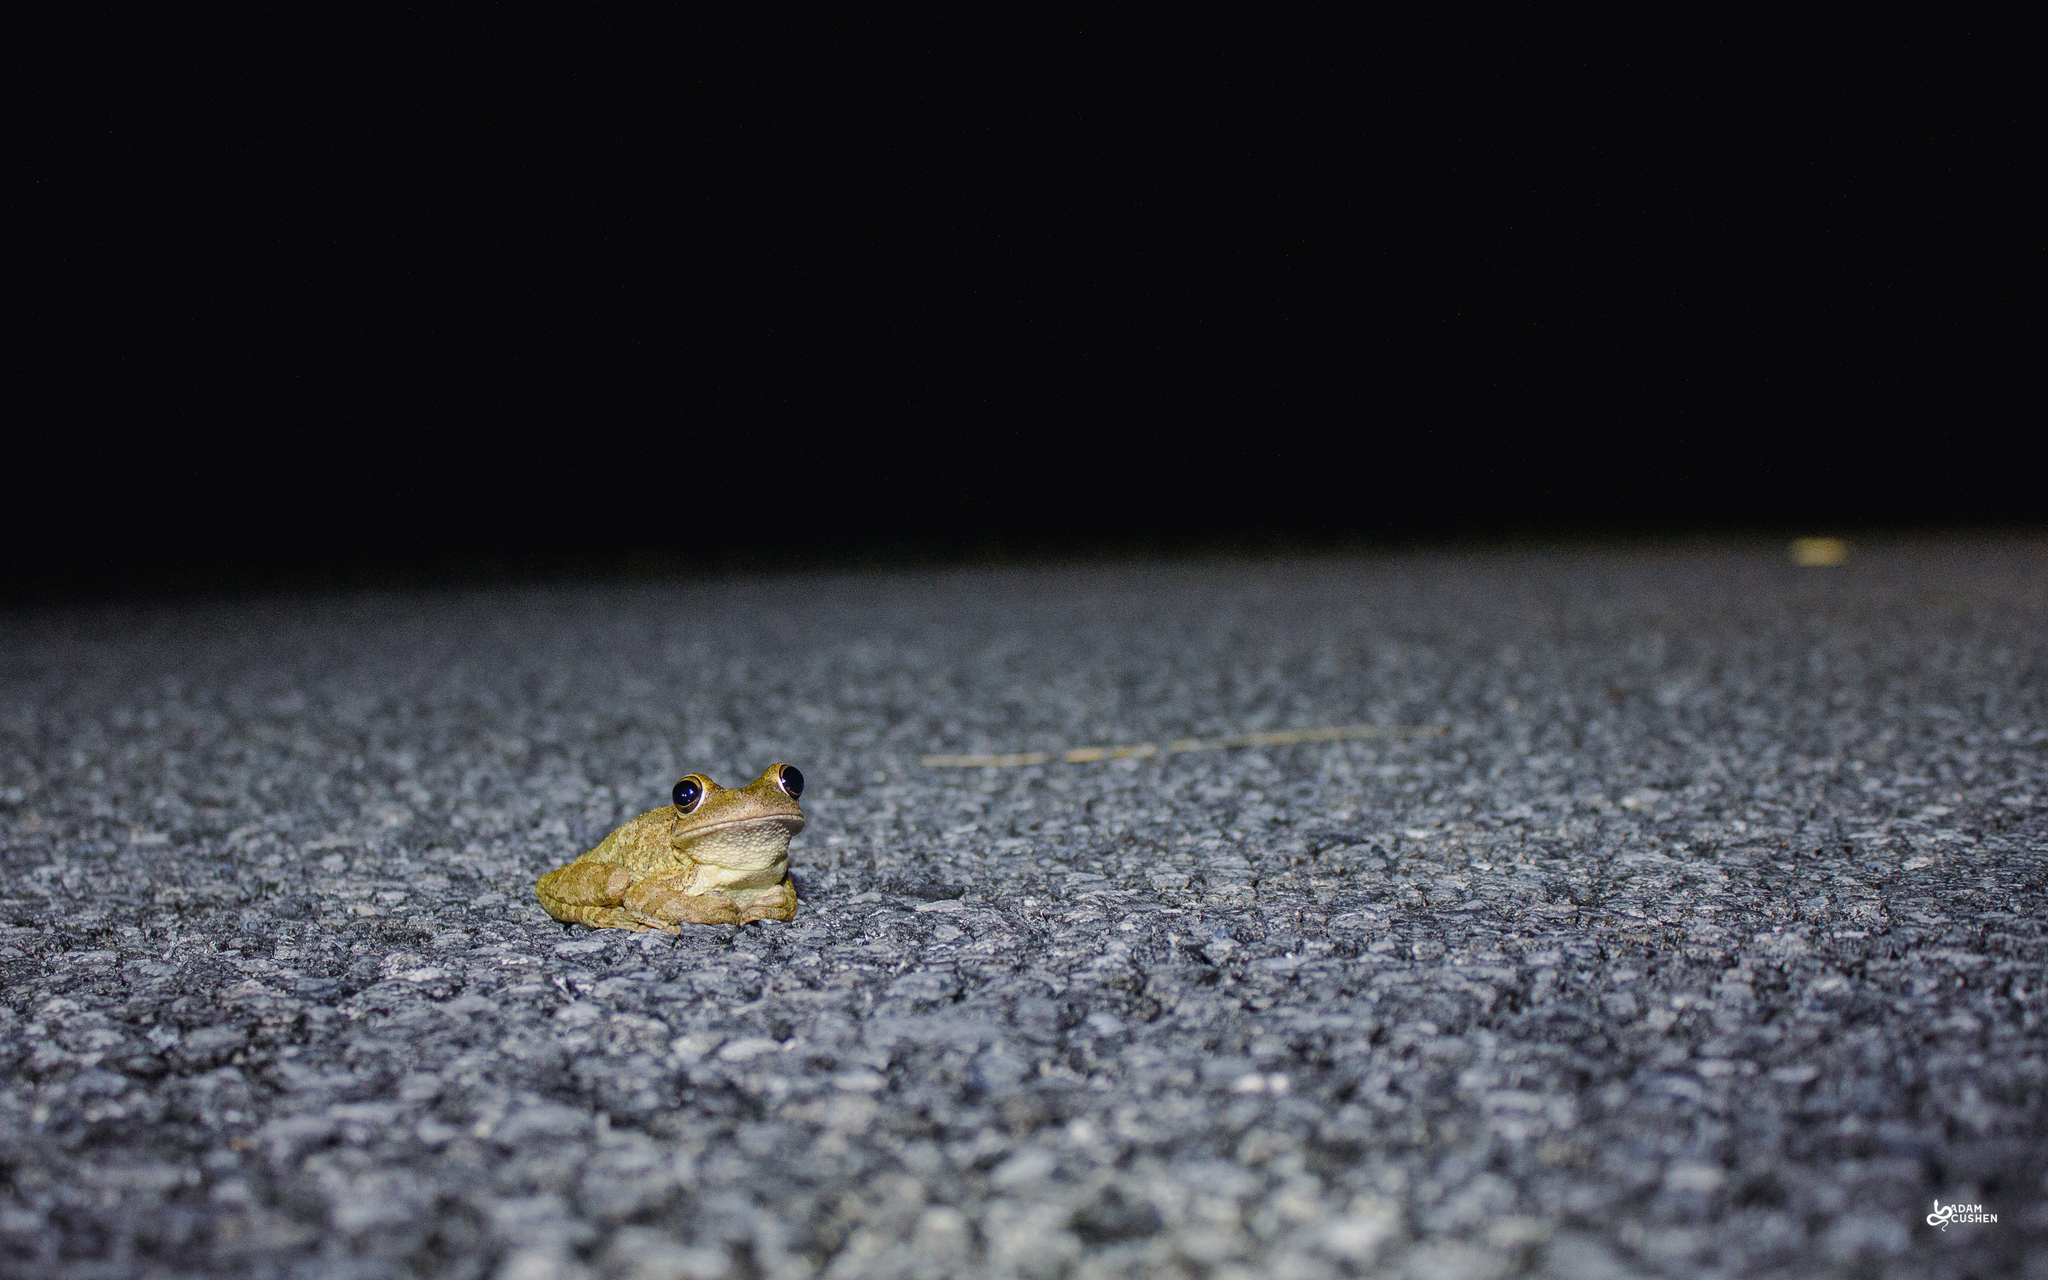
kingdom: Animalia
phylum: Chordata
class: Amphibia
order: Anura
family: Hylidae
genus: Osteopilus
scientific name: Osteopilus septentrionalis
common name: Cuban treefrog
